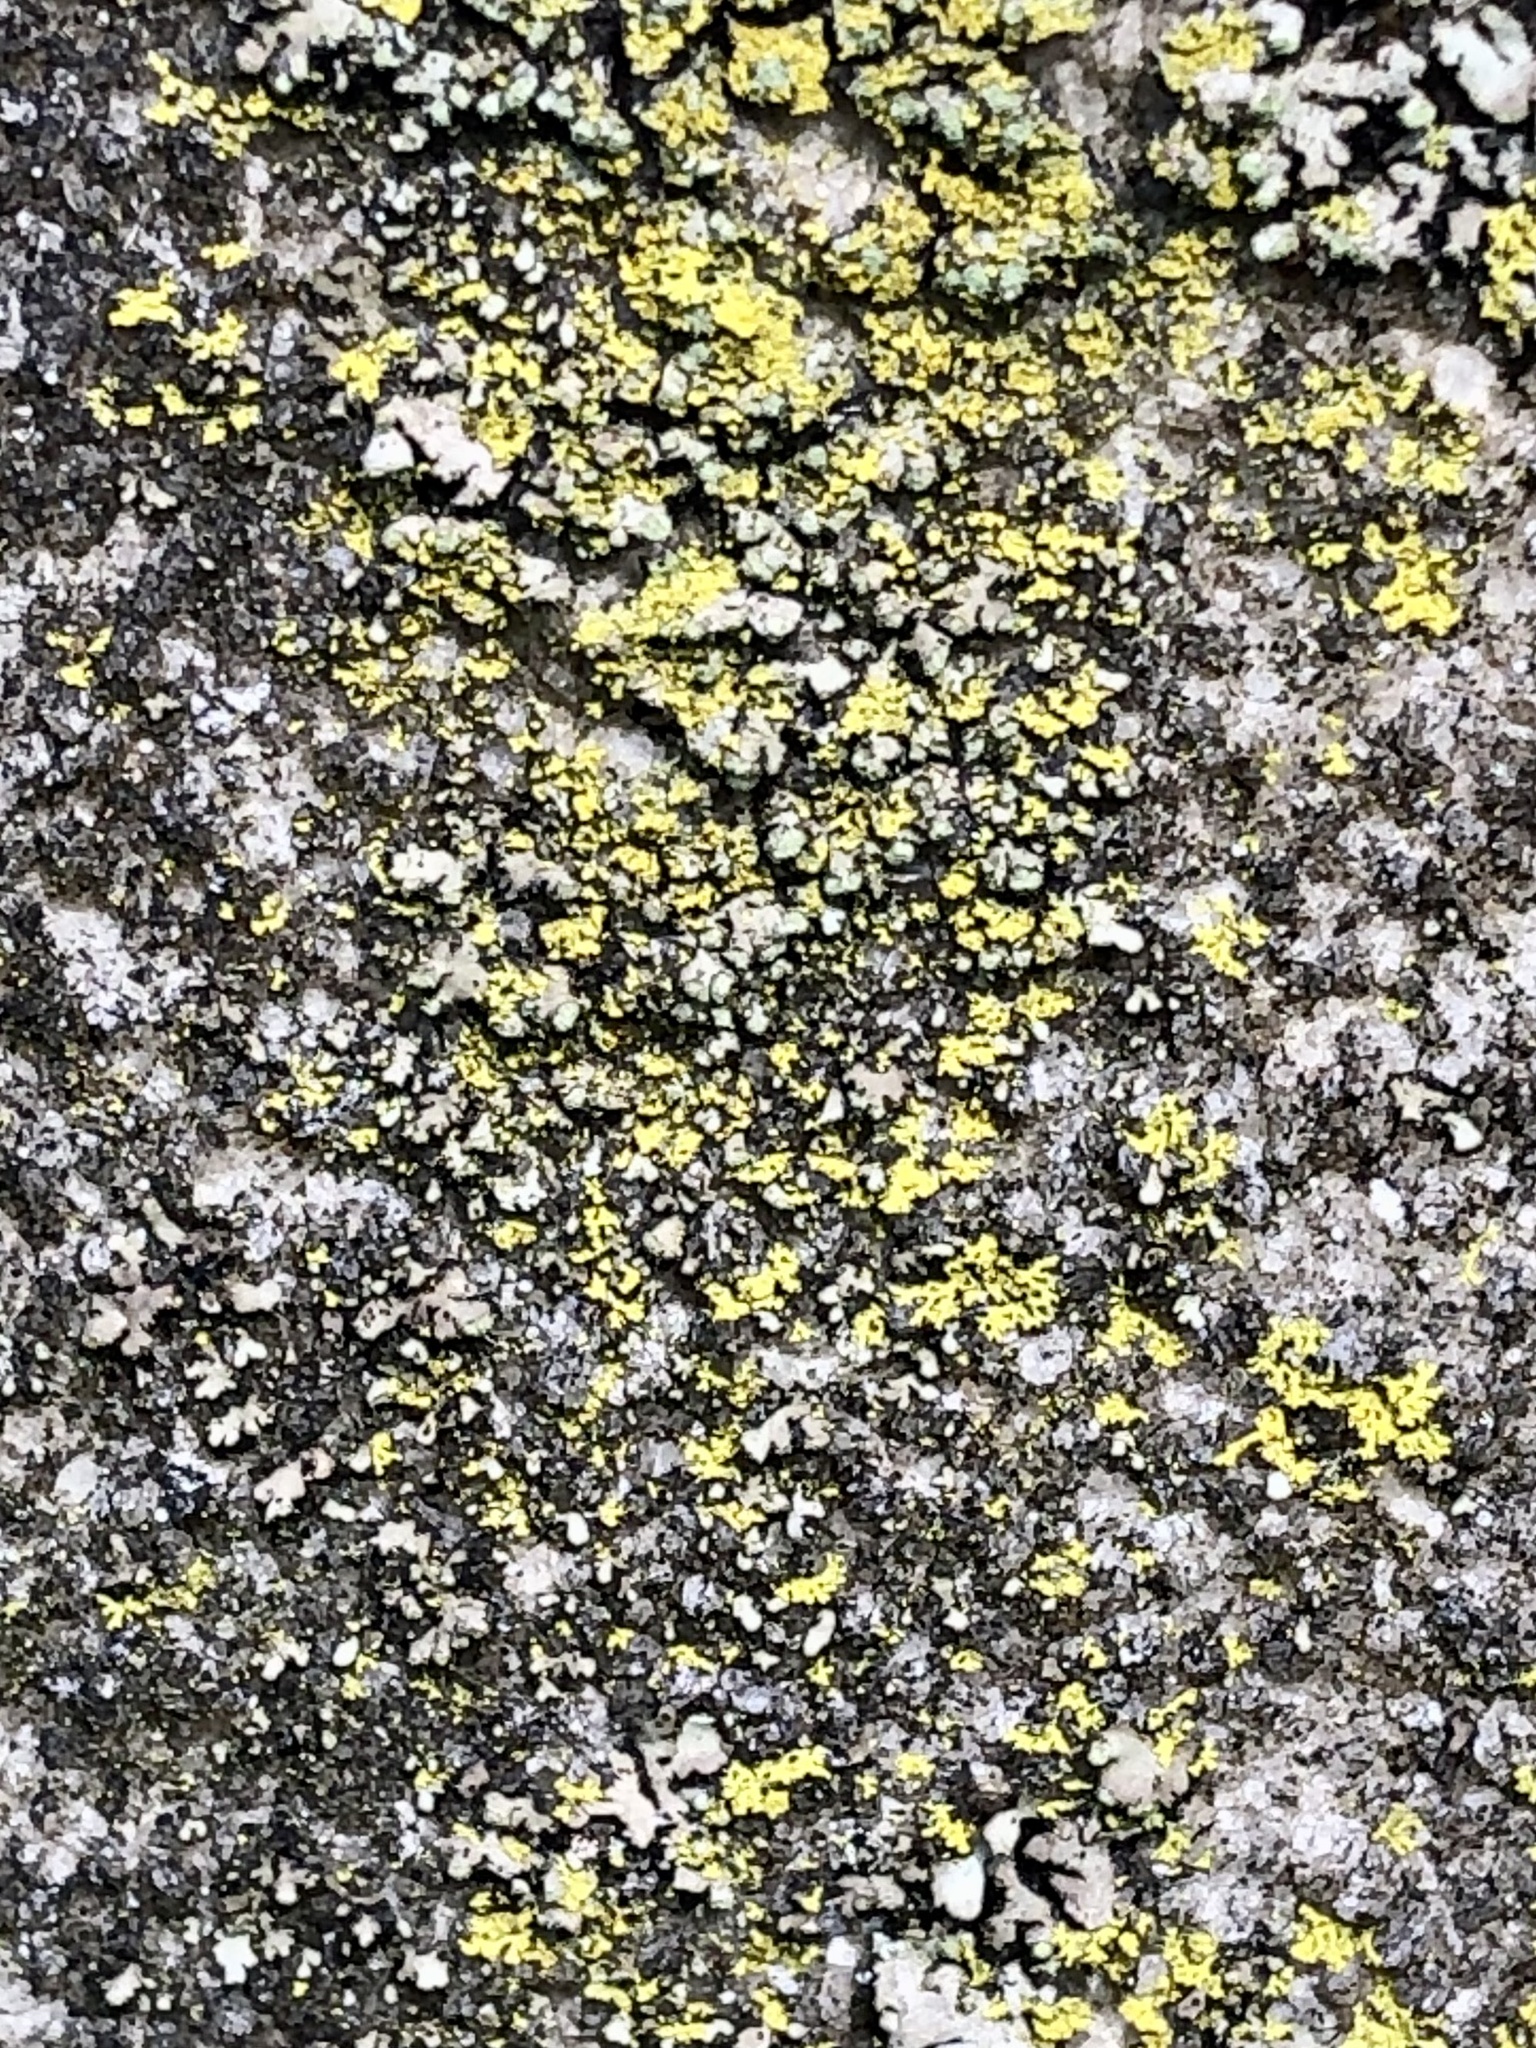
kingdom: Fungi
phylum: Ascomycota
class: Candelariomycetes
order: Candelariales
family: Candelariaceae
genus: Candelaria
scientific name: Candelaria concolor
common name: Candleflame lichen
